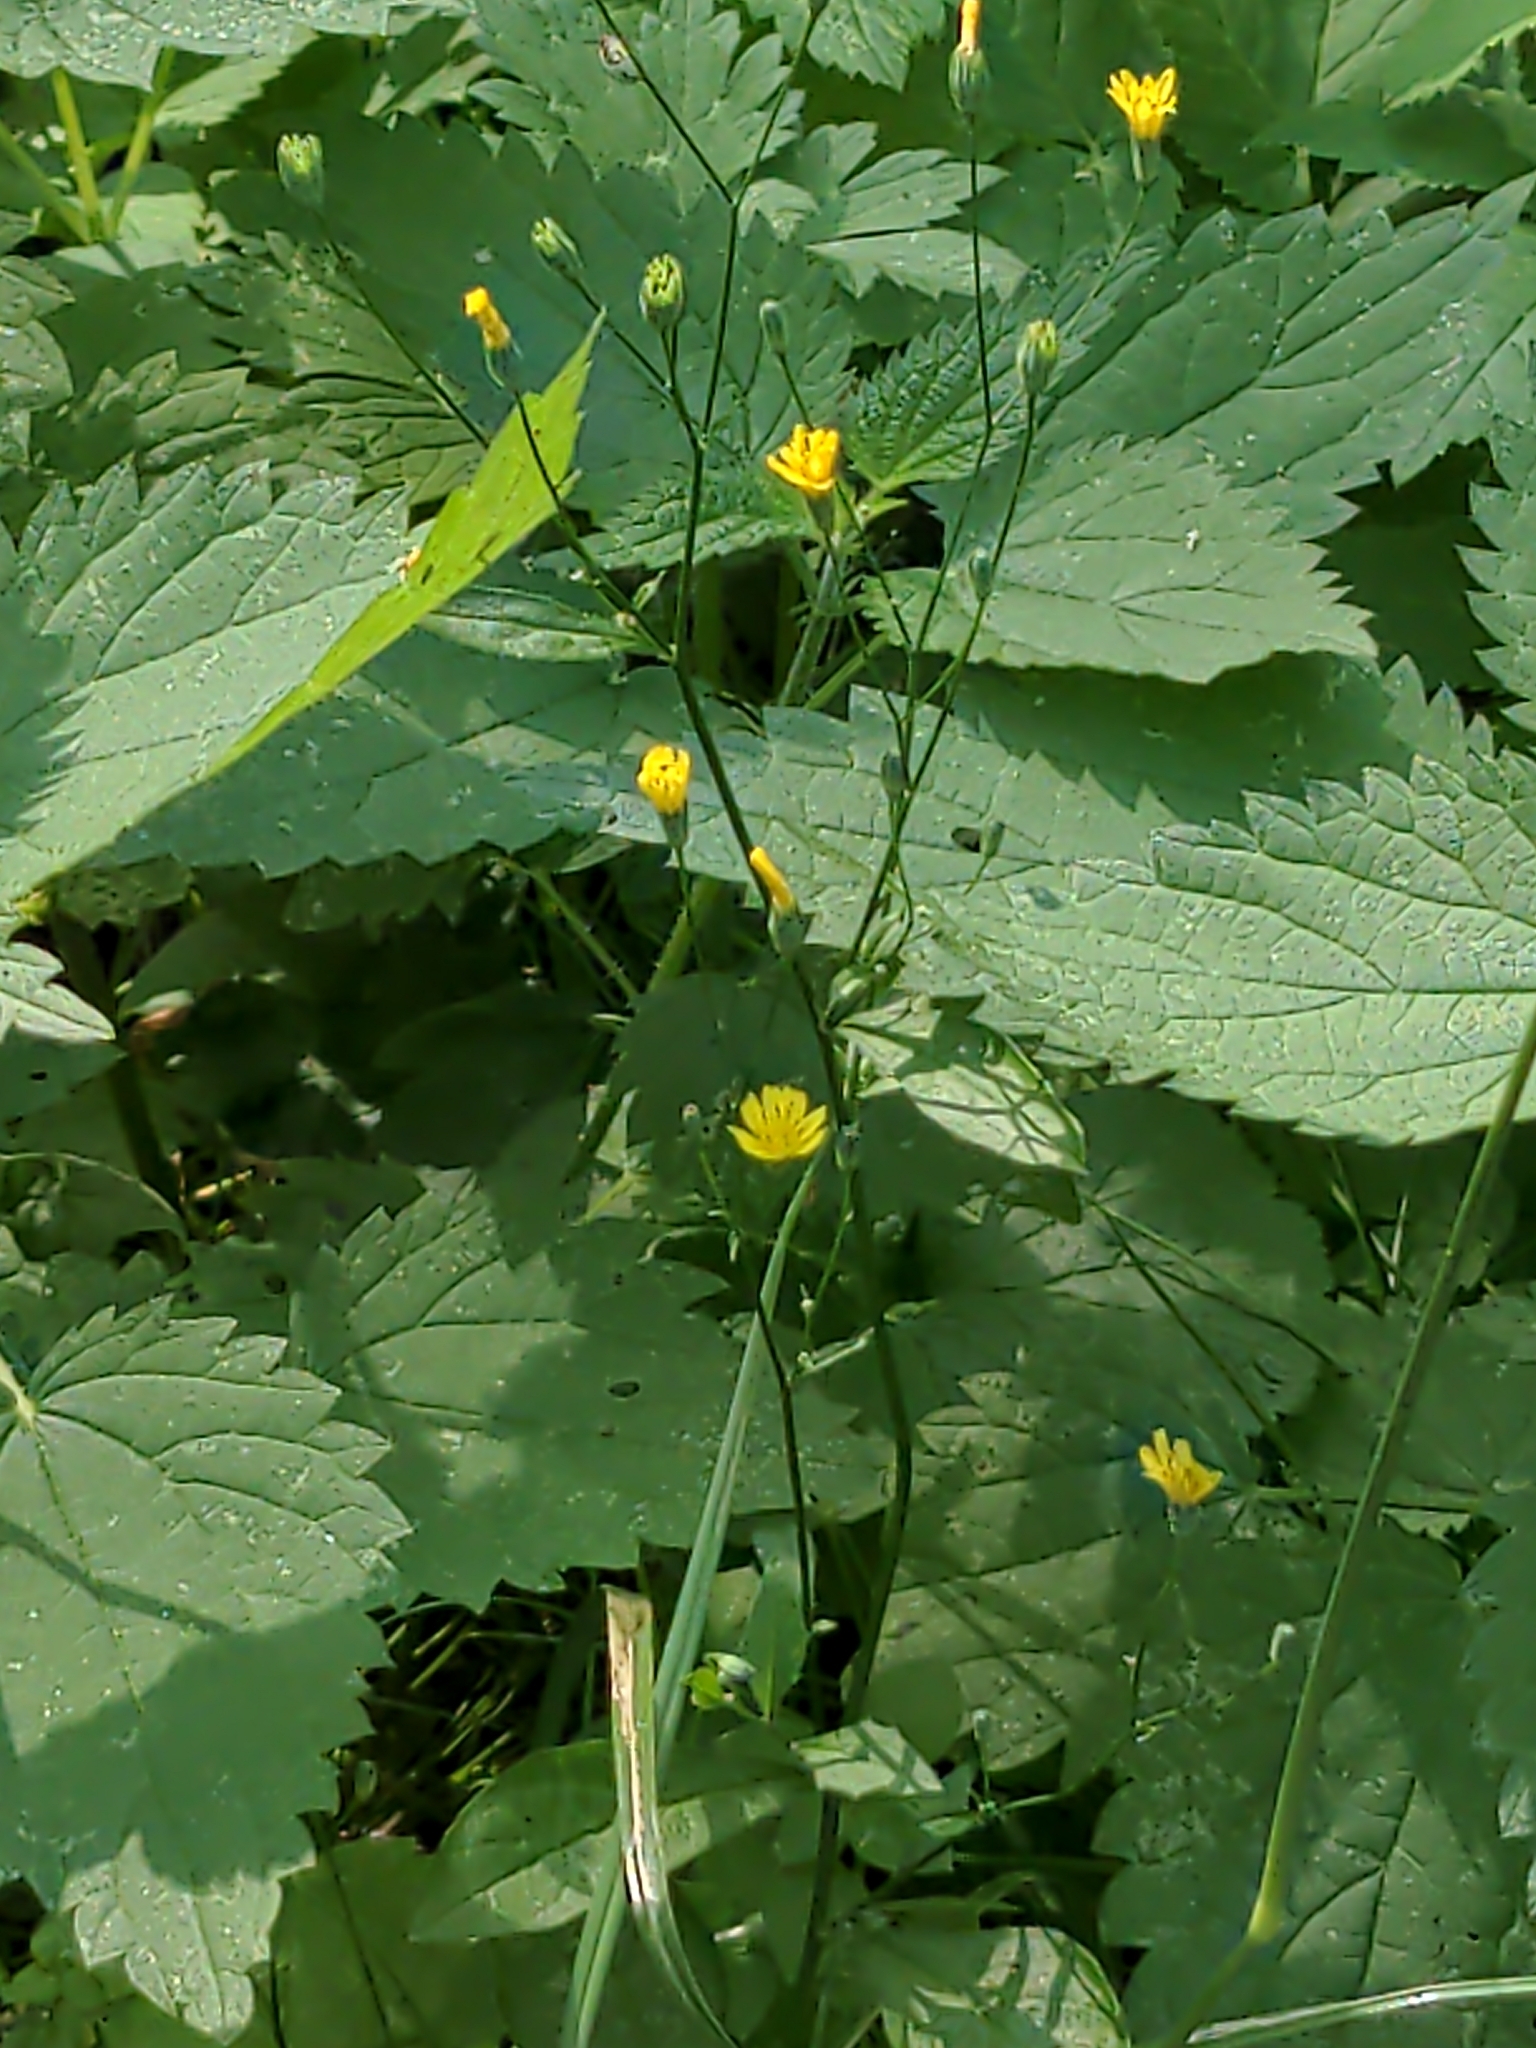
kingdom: Plantae
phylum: Tracheophyta
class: Magnoliopsida
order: Asterales
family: Asteraceae
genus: Lapsana
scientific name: Lapsana communis
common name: Nipplewort
